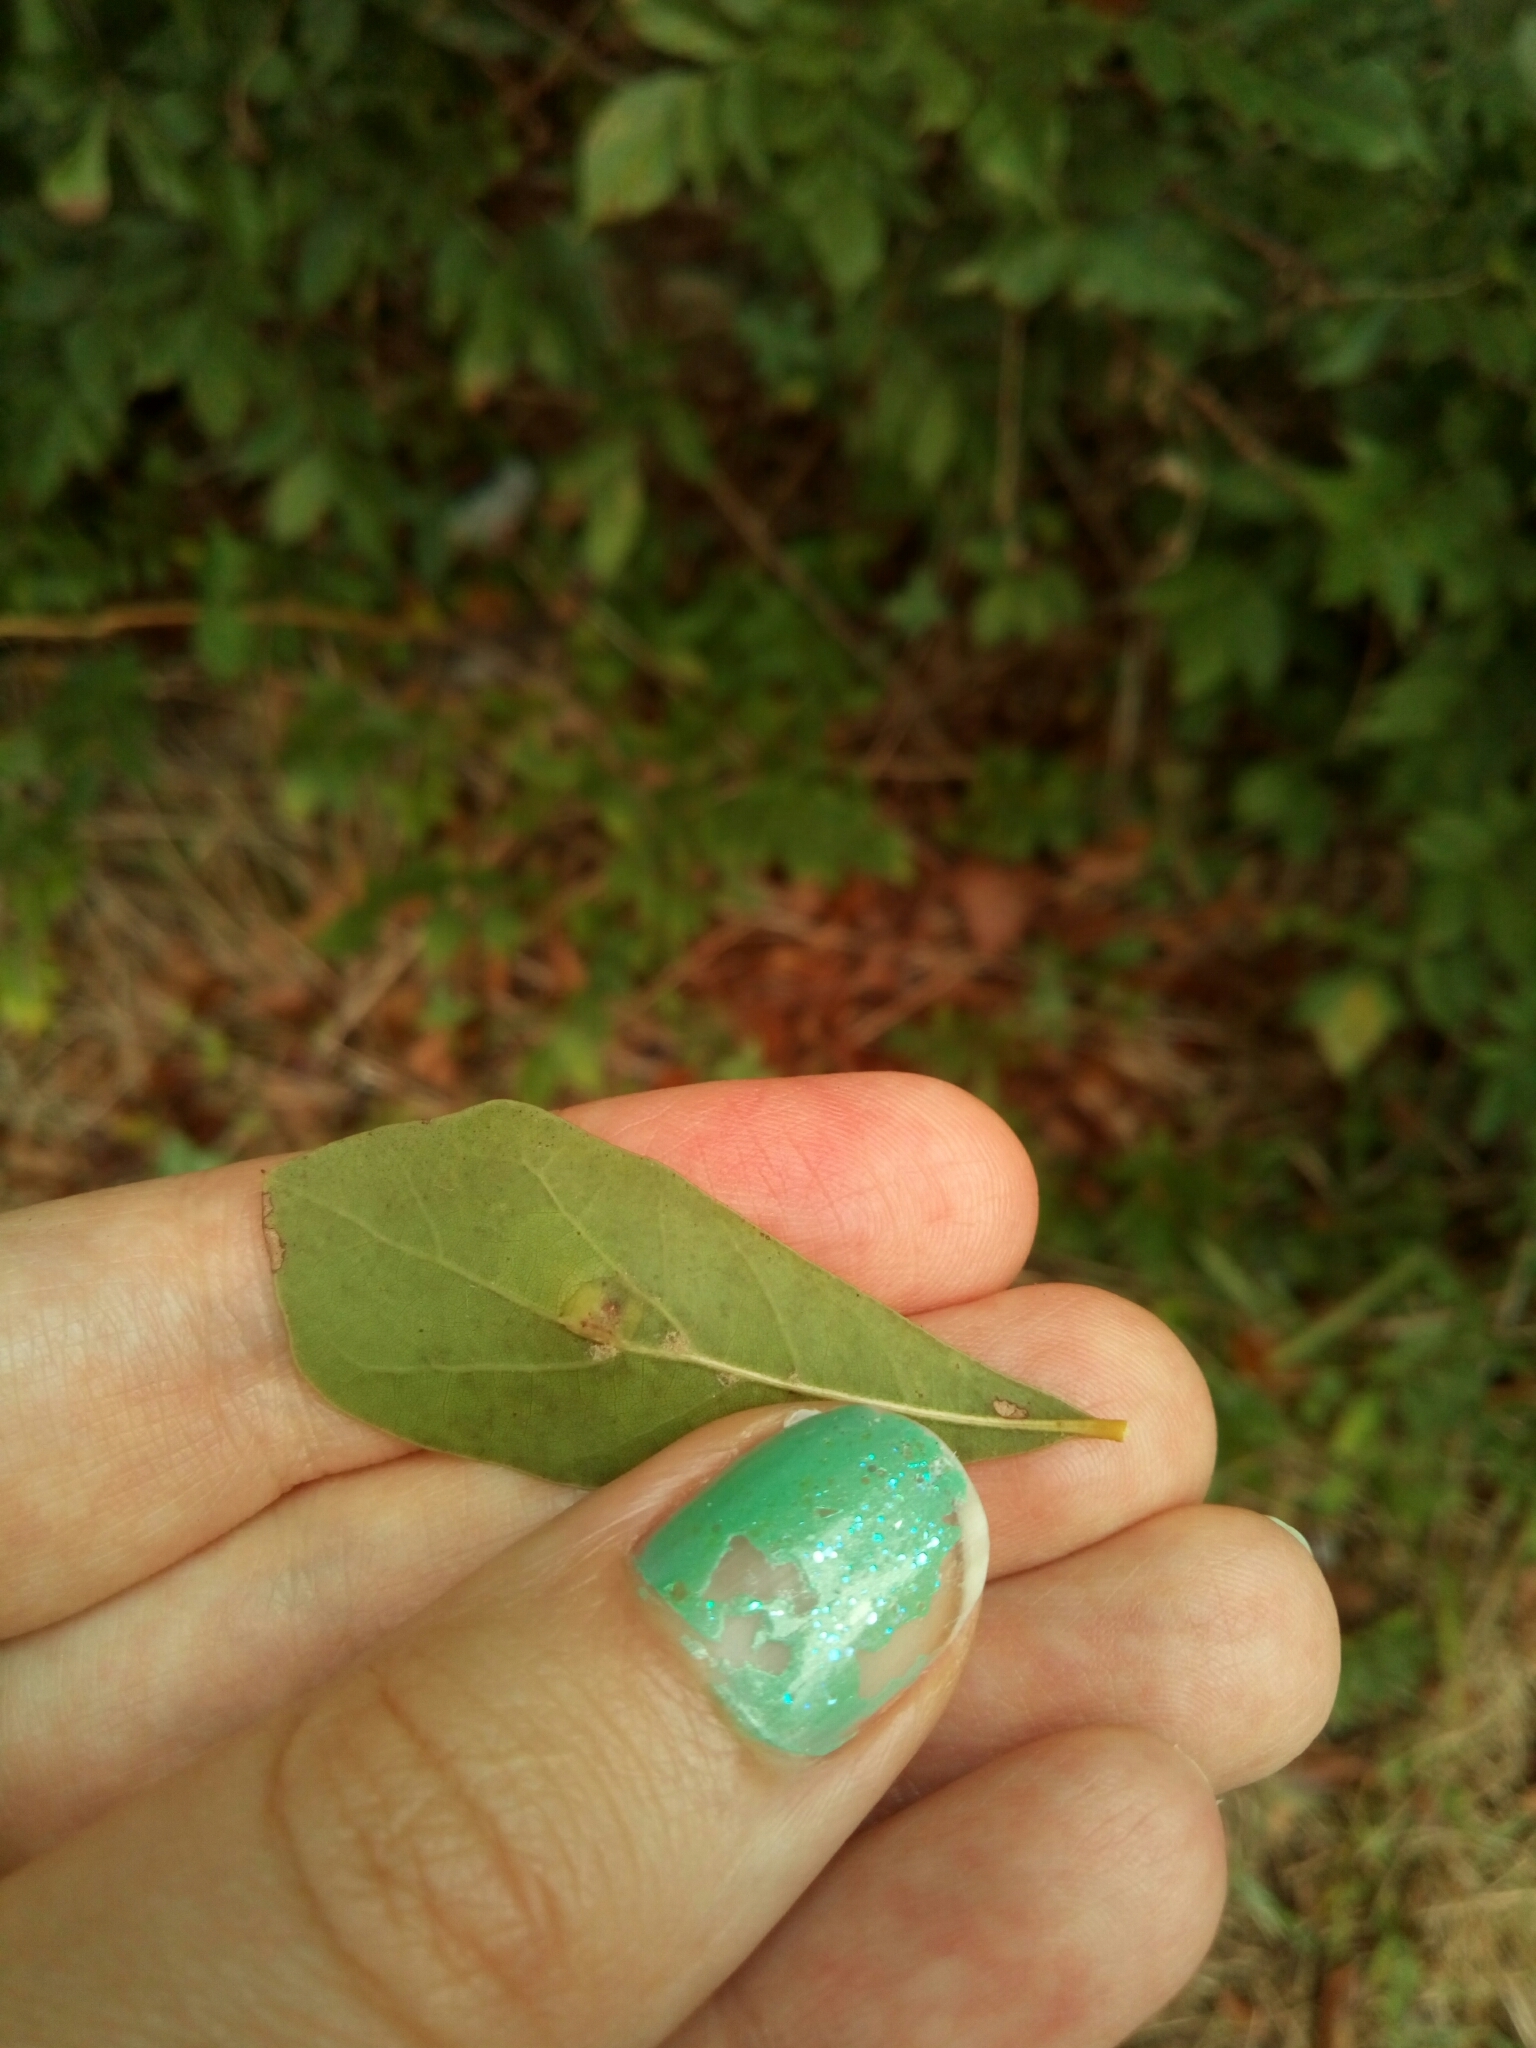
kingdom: Animalia
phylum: Arthropoda
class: Insecta
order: Diptera
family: Cecidomyiidae
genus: Polystepha
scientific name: Polystepha pilulae
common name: Oak leaf gall midge
